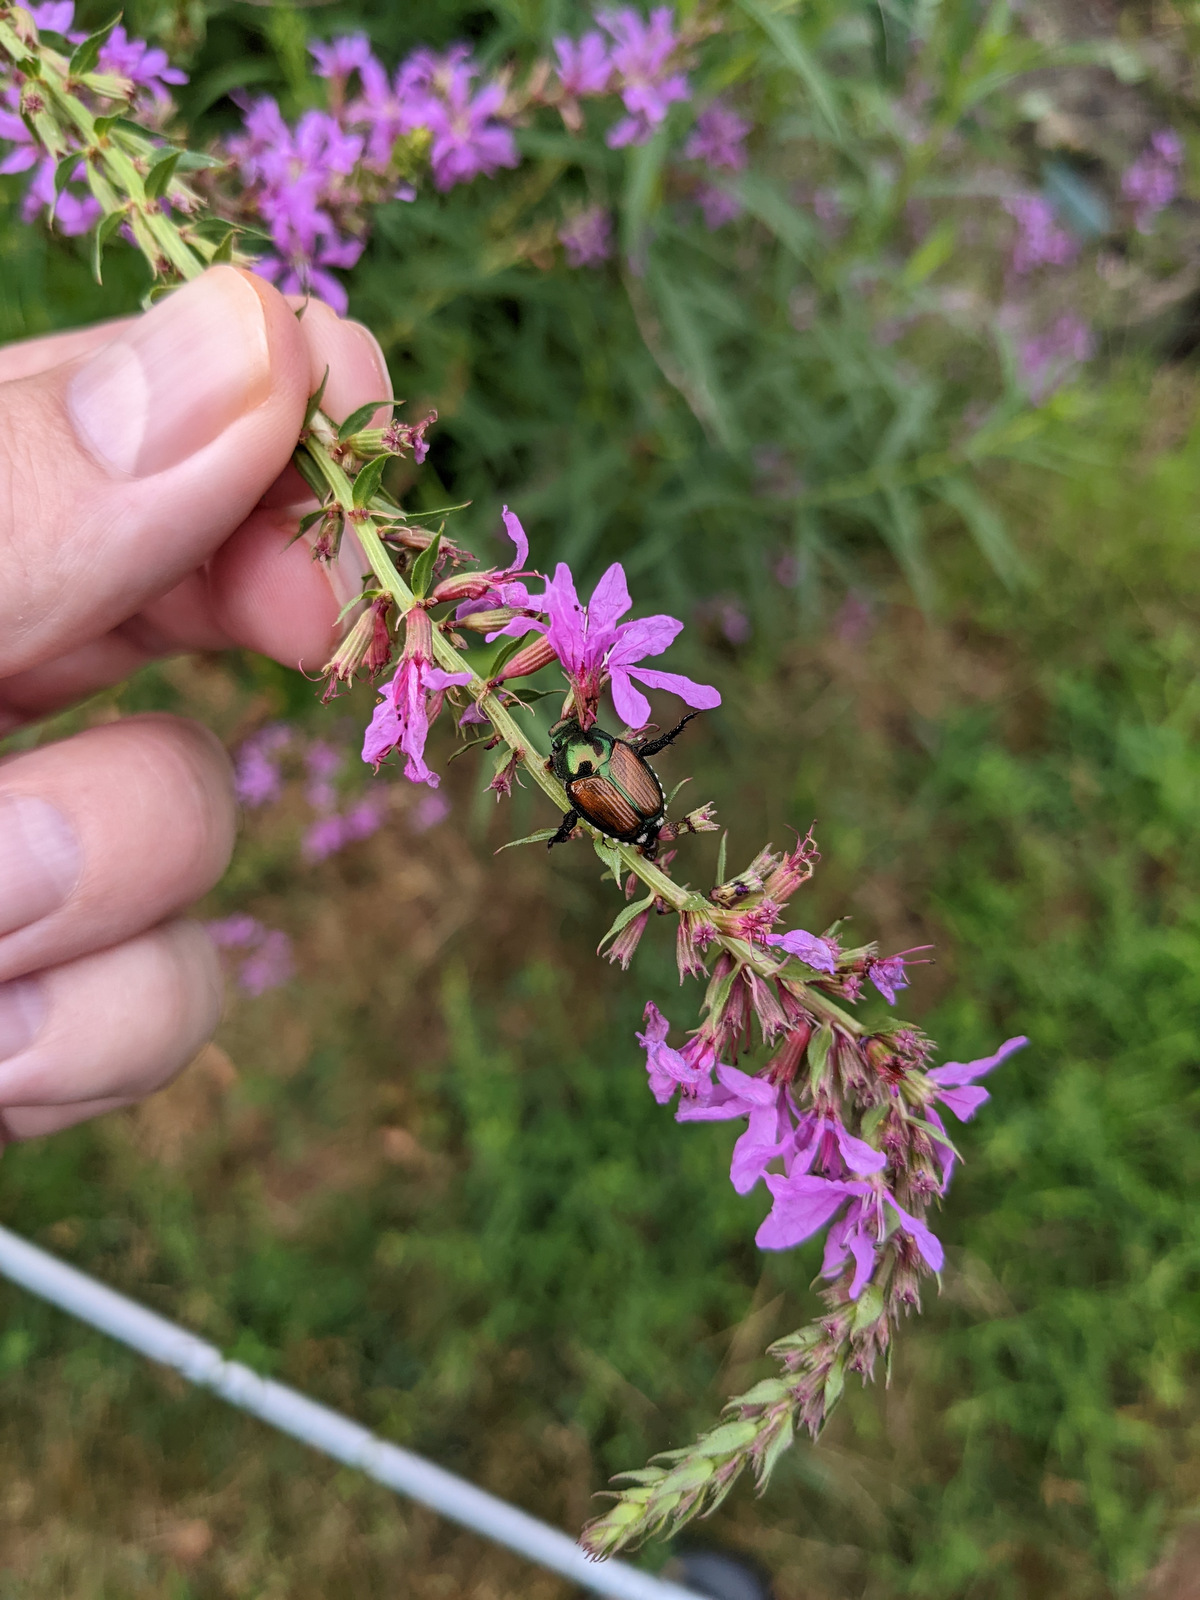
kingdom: Plantae
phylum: Tracheophyta
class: Magnoliopsida
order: Myrtales
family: Lythraceae
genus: Lythrum
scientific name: Lythrum salicaria
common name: Purple loosestrife
